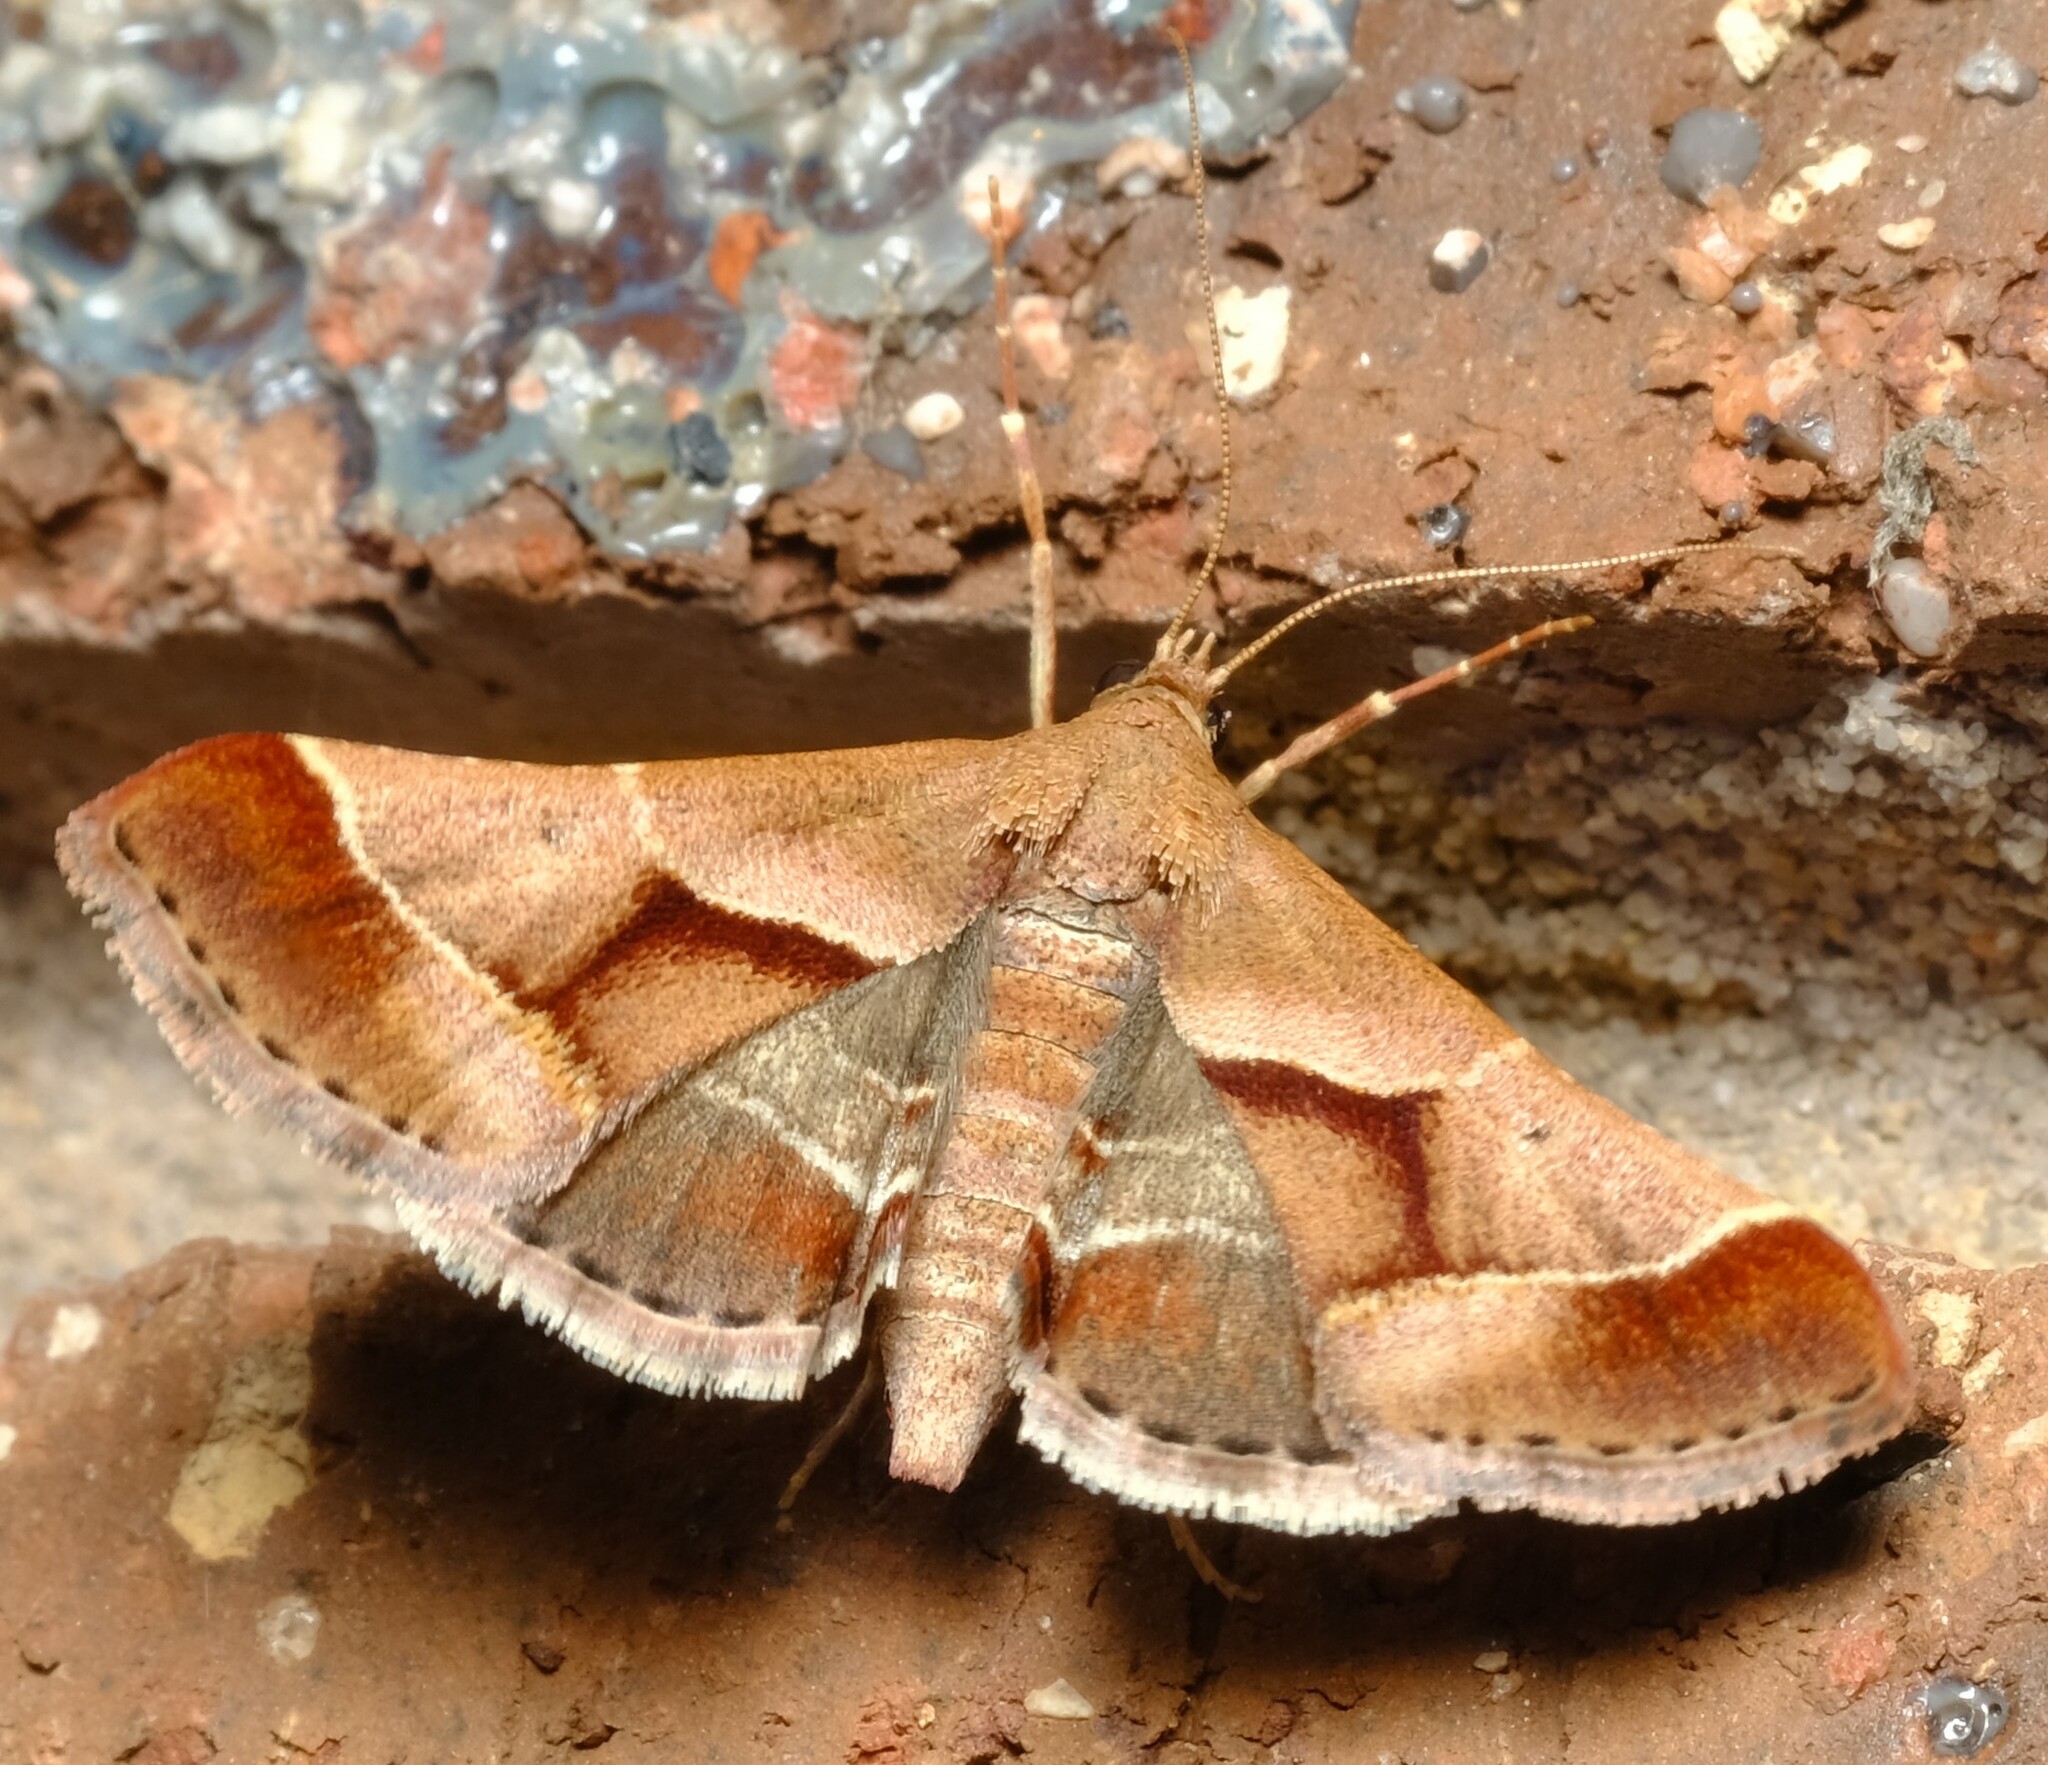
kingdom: Animalia
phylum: Arthropoda
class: Insecta
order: Lepidoptera
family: Pyralidae
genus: Gauna
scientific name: Gauna aegusalis
